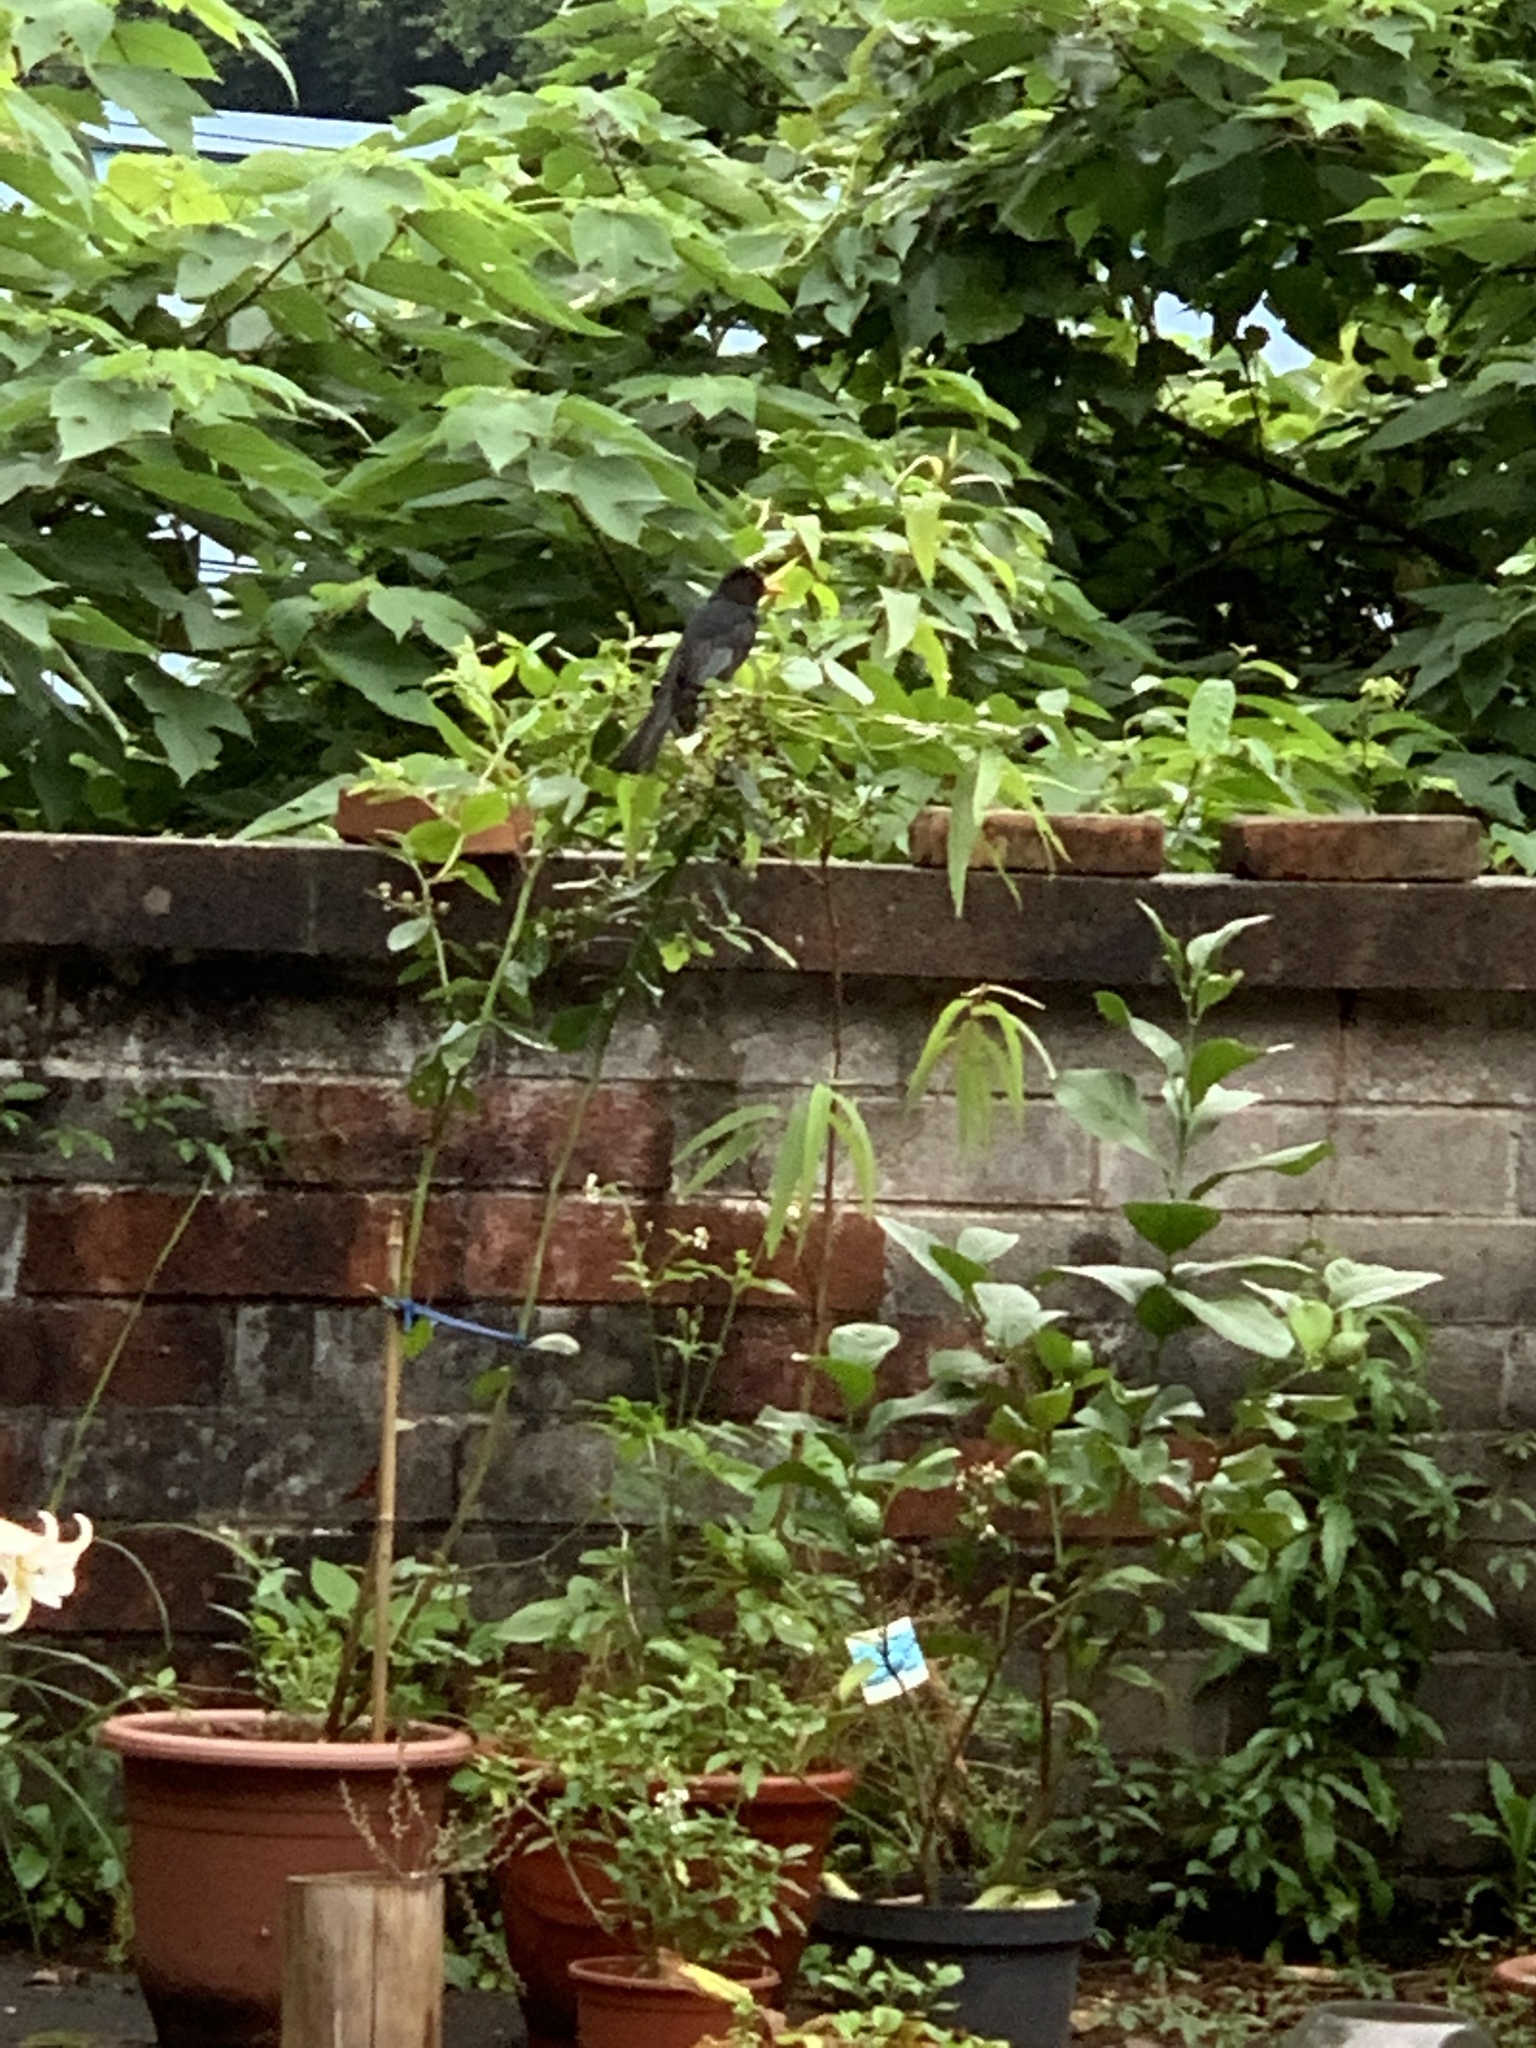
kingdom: Animalia
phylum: Chordata
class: Aves
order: Passeriformes
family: Pycnonotidae
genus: Hypsipetes
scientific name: Hypsipetes leucocephalus
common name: Black bulbul
